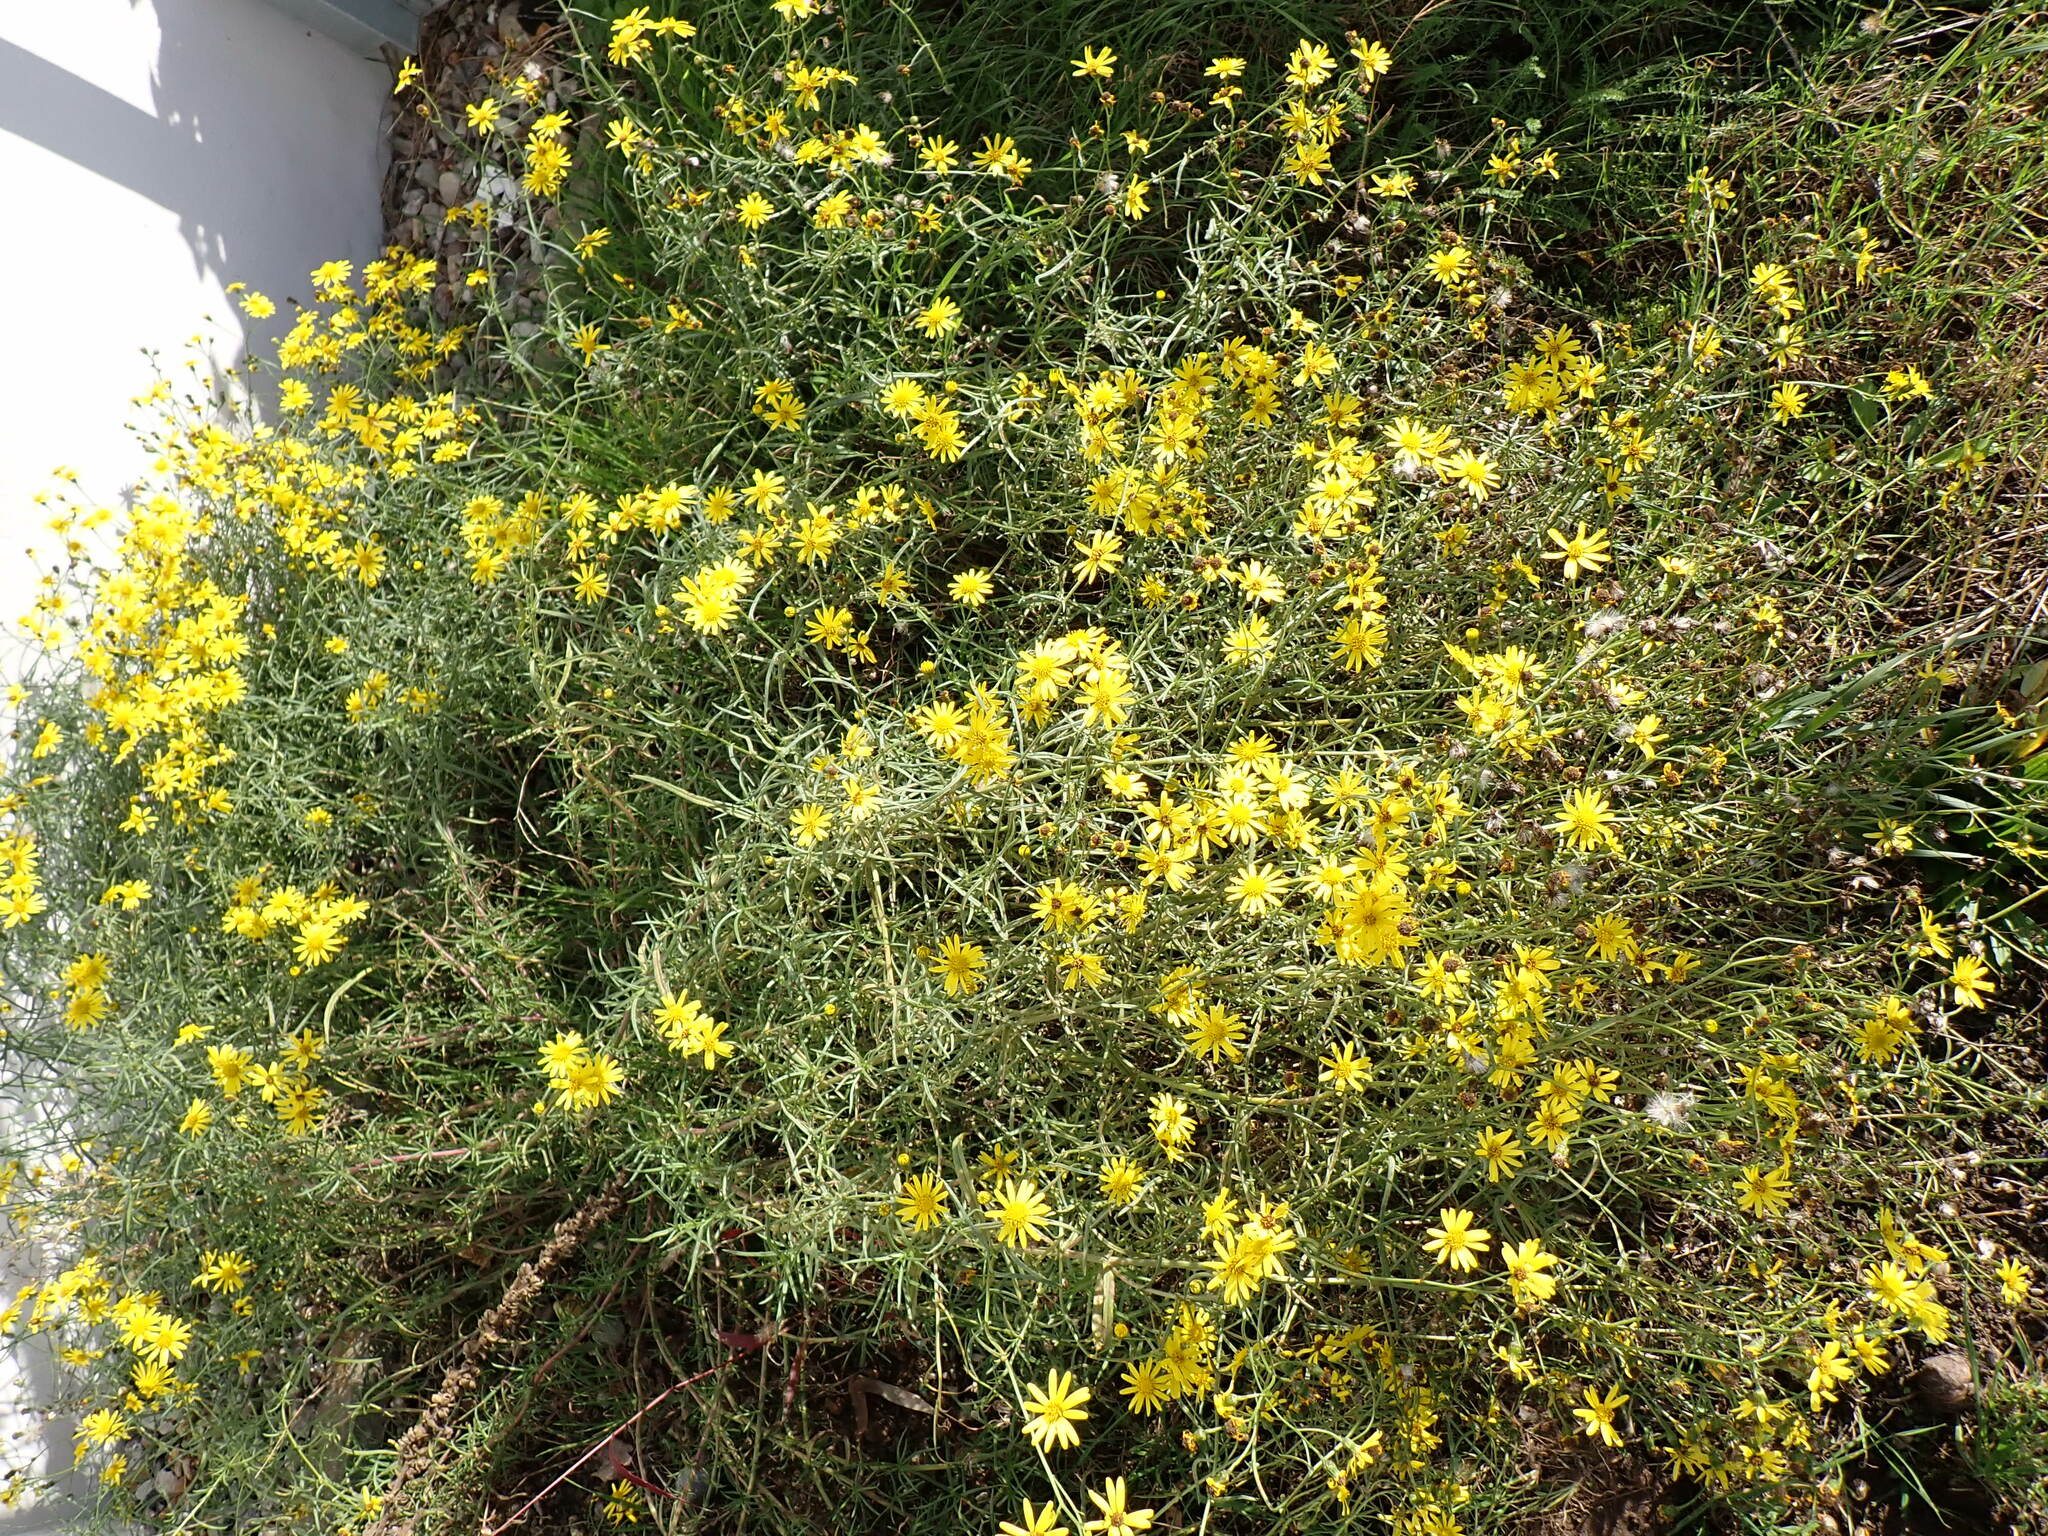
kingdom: Plantae
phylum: Tracheophyta
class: Magnoliopsida
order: Asterales
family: Asteraceae
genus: Senecio
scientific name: Senecio inaequidens
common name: Narrow-leaved ragwort
